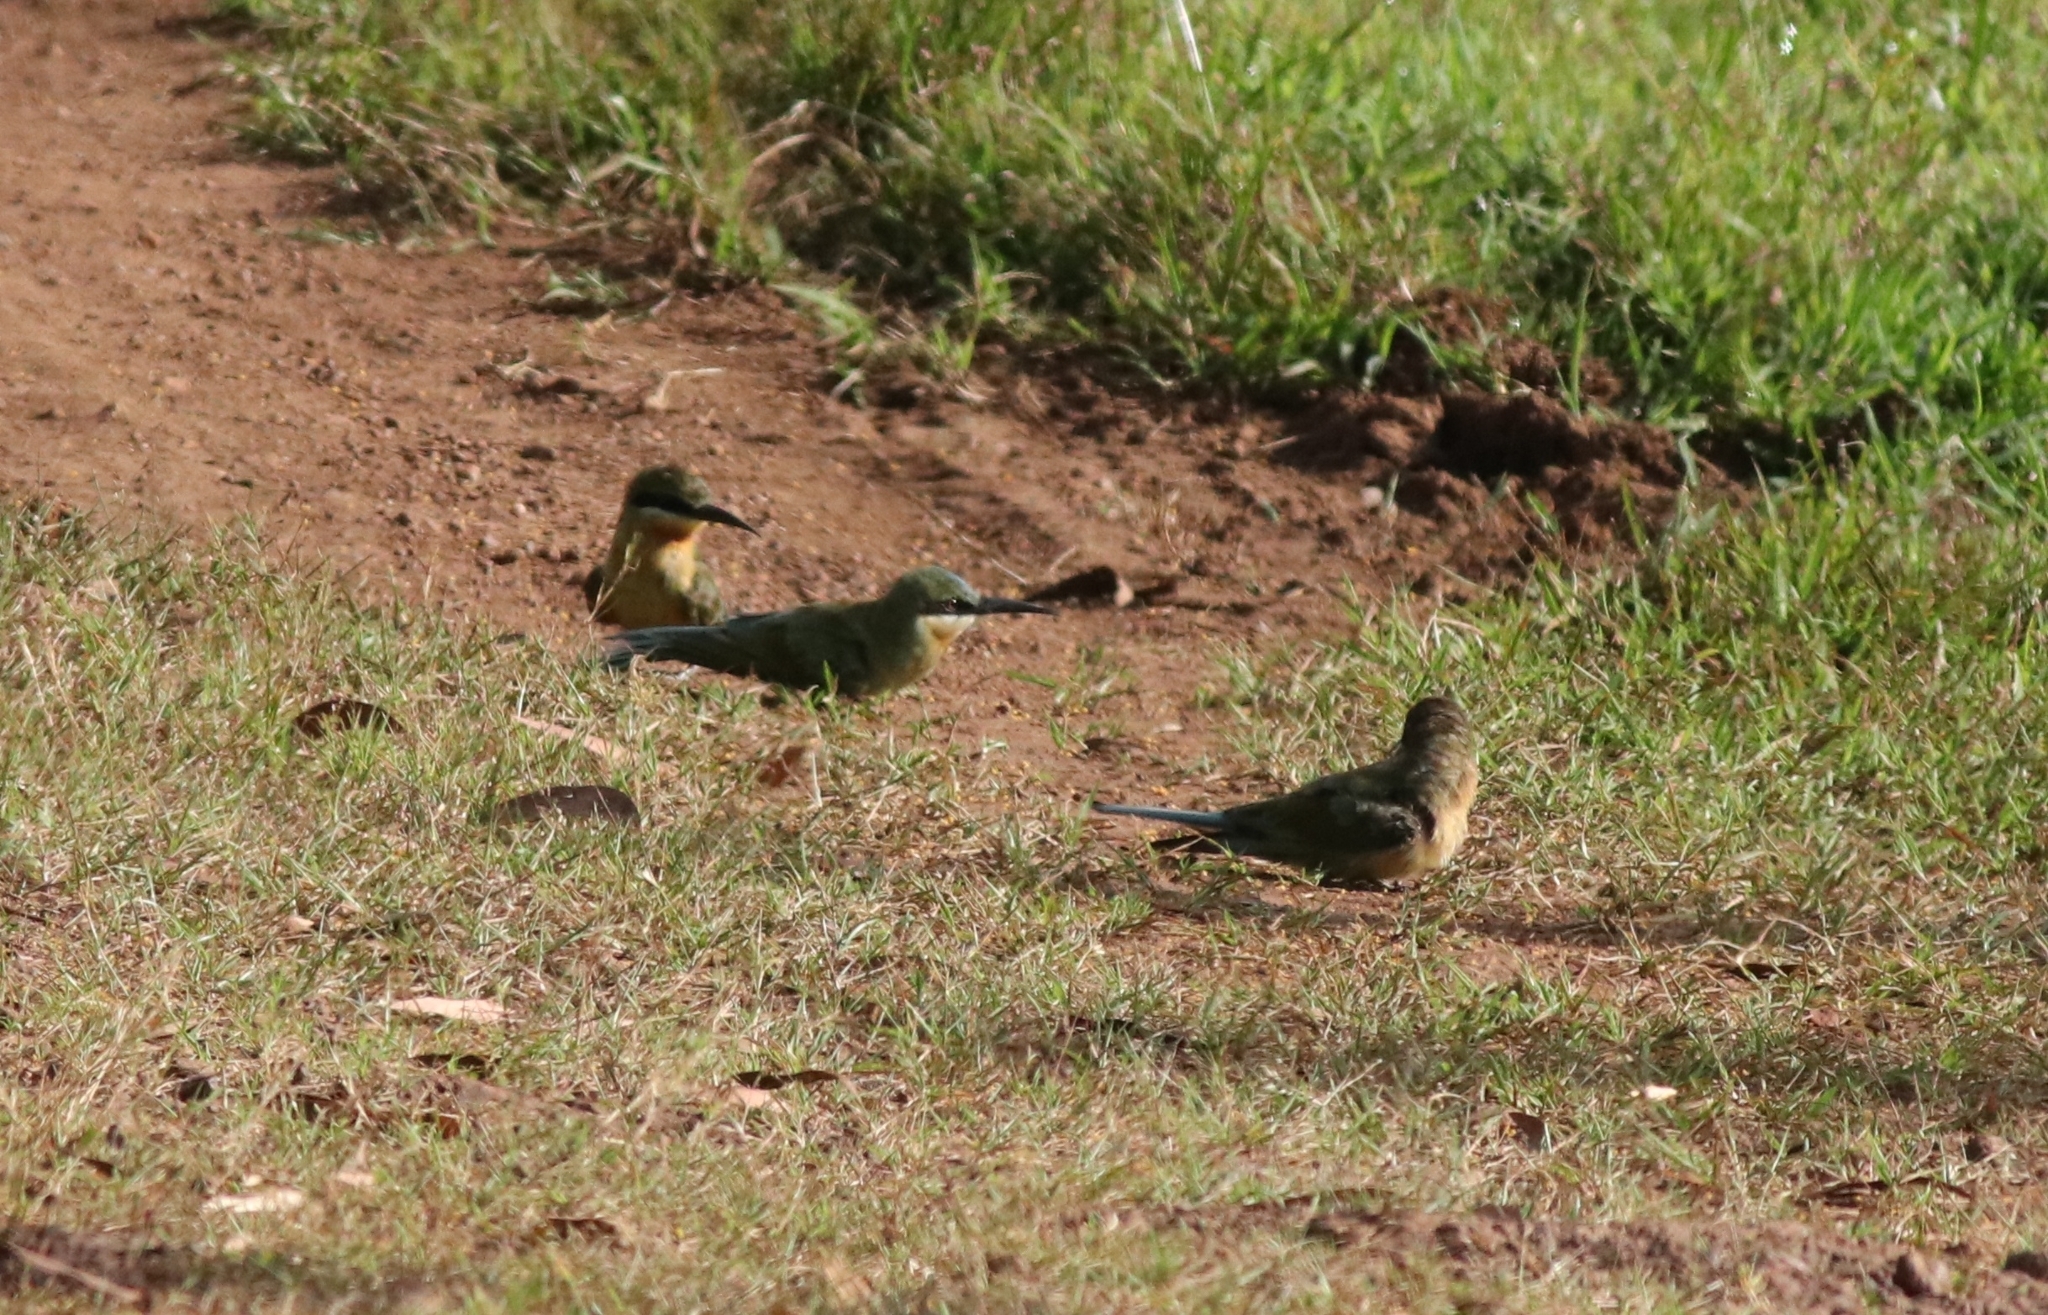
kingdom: Animalia
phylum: Chordata
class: Aves
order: Coraciiformes
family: Meropidae
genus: Merops
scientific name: Merops philippinus
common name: Blue-tailed bee-eater
